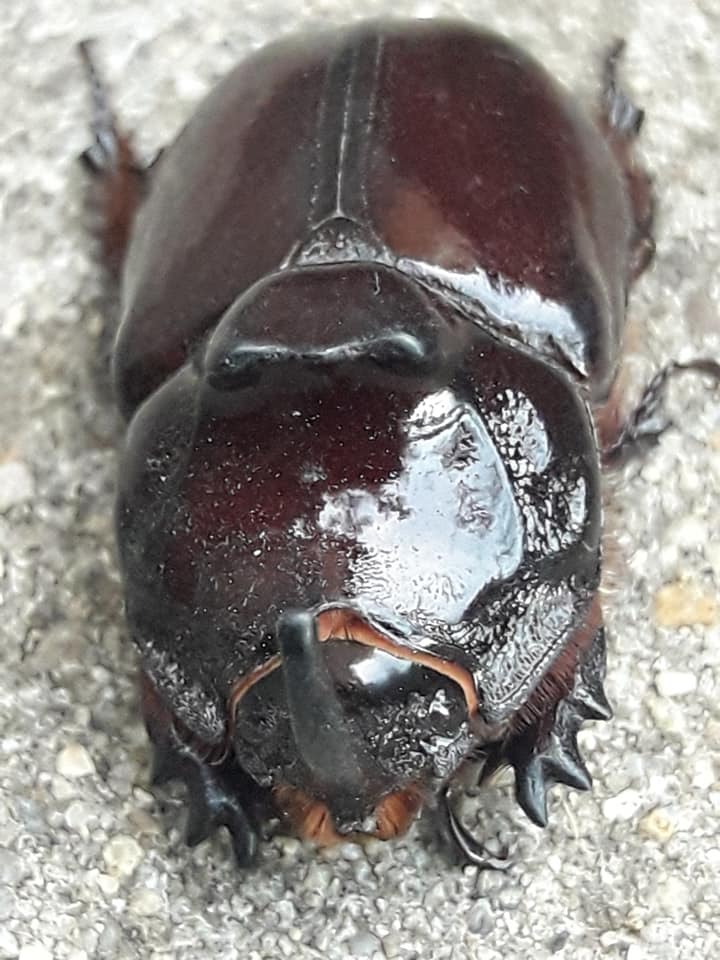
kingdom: Animalia
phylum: Arthropoda
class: Insecta
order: Coleoptera
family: Scarabaeidae
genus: Oryctes
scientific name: Oryctes nasicornis
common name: European rhinoceros beetle
